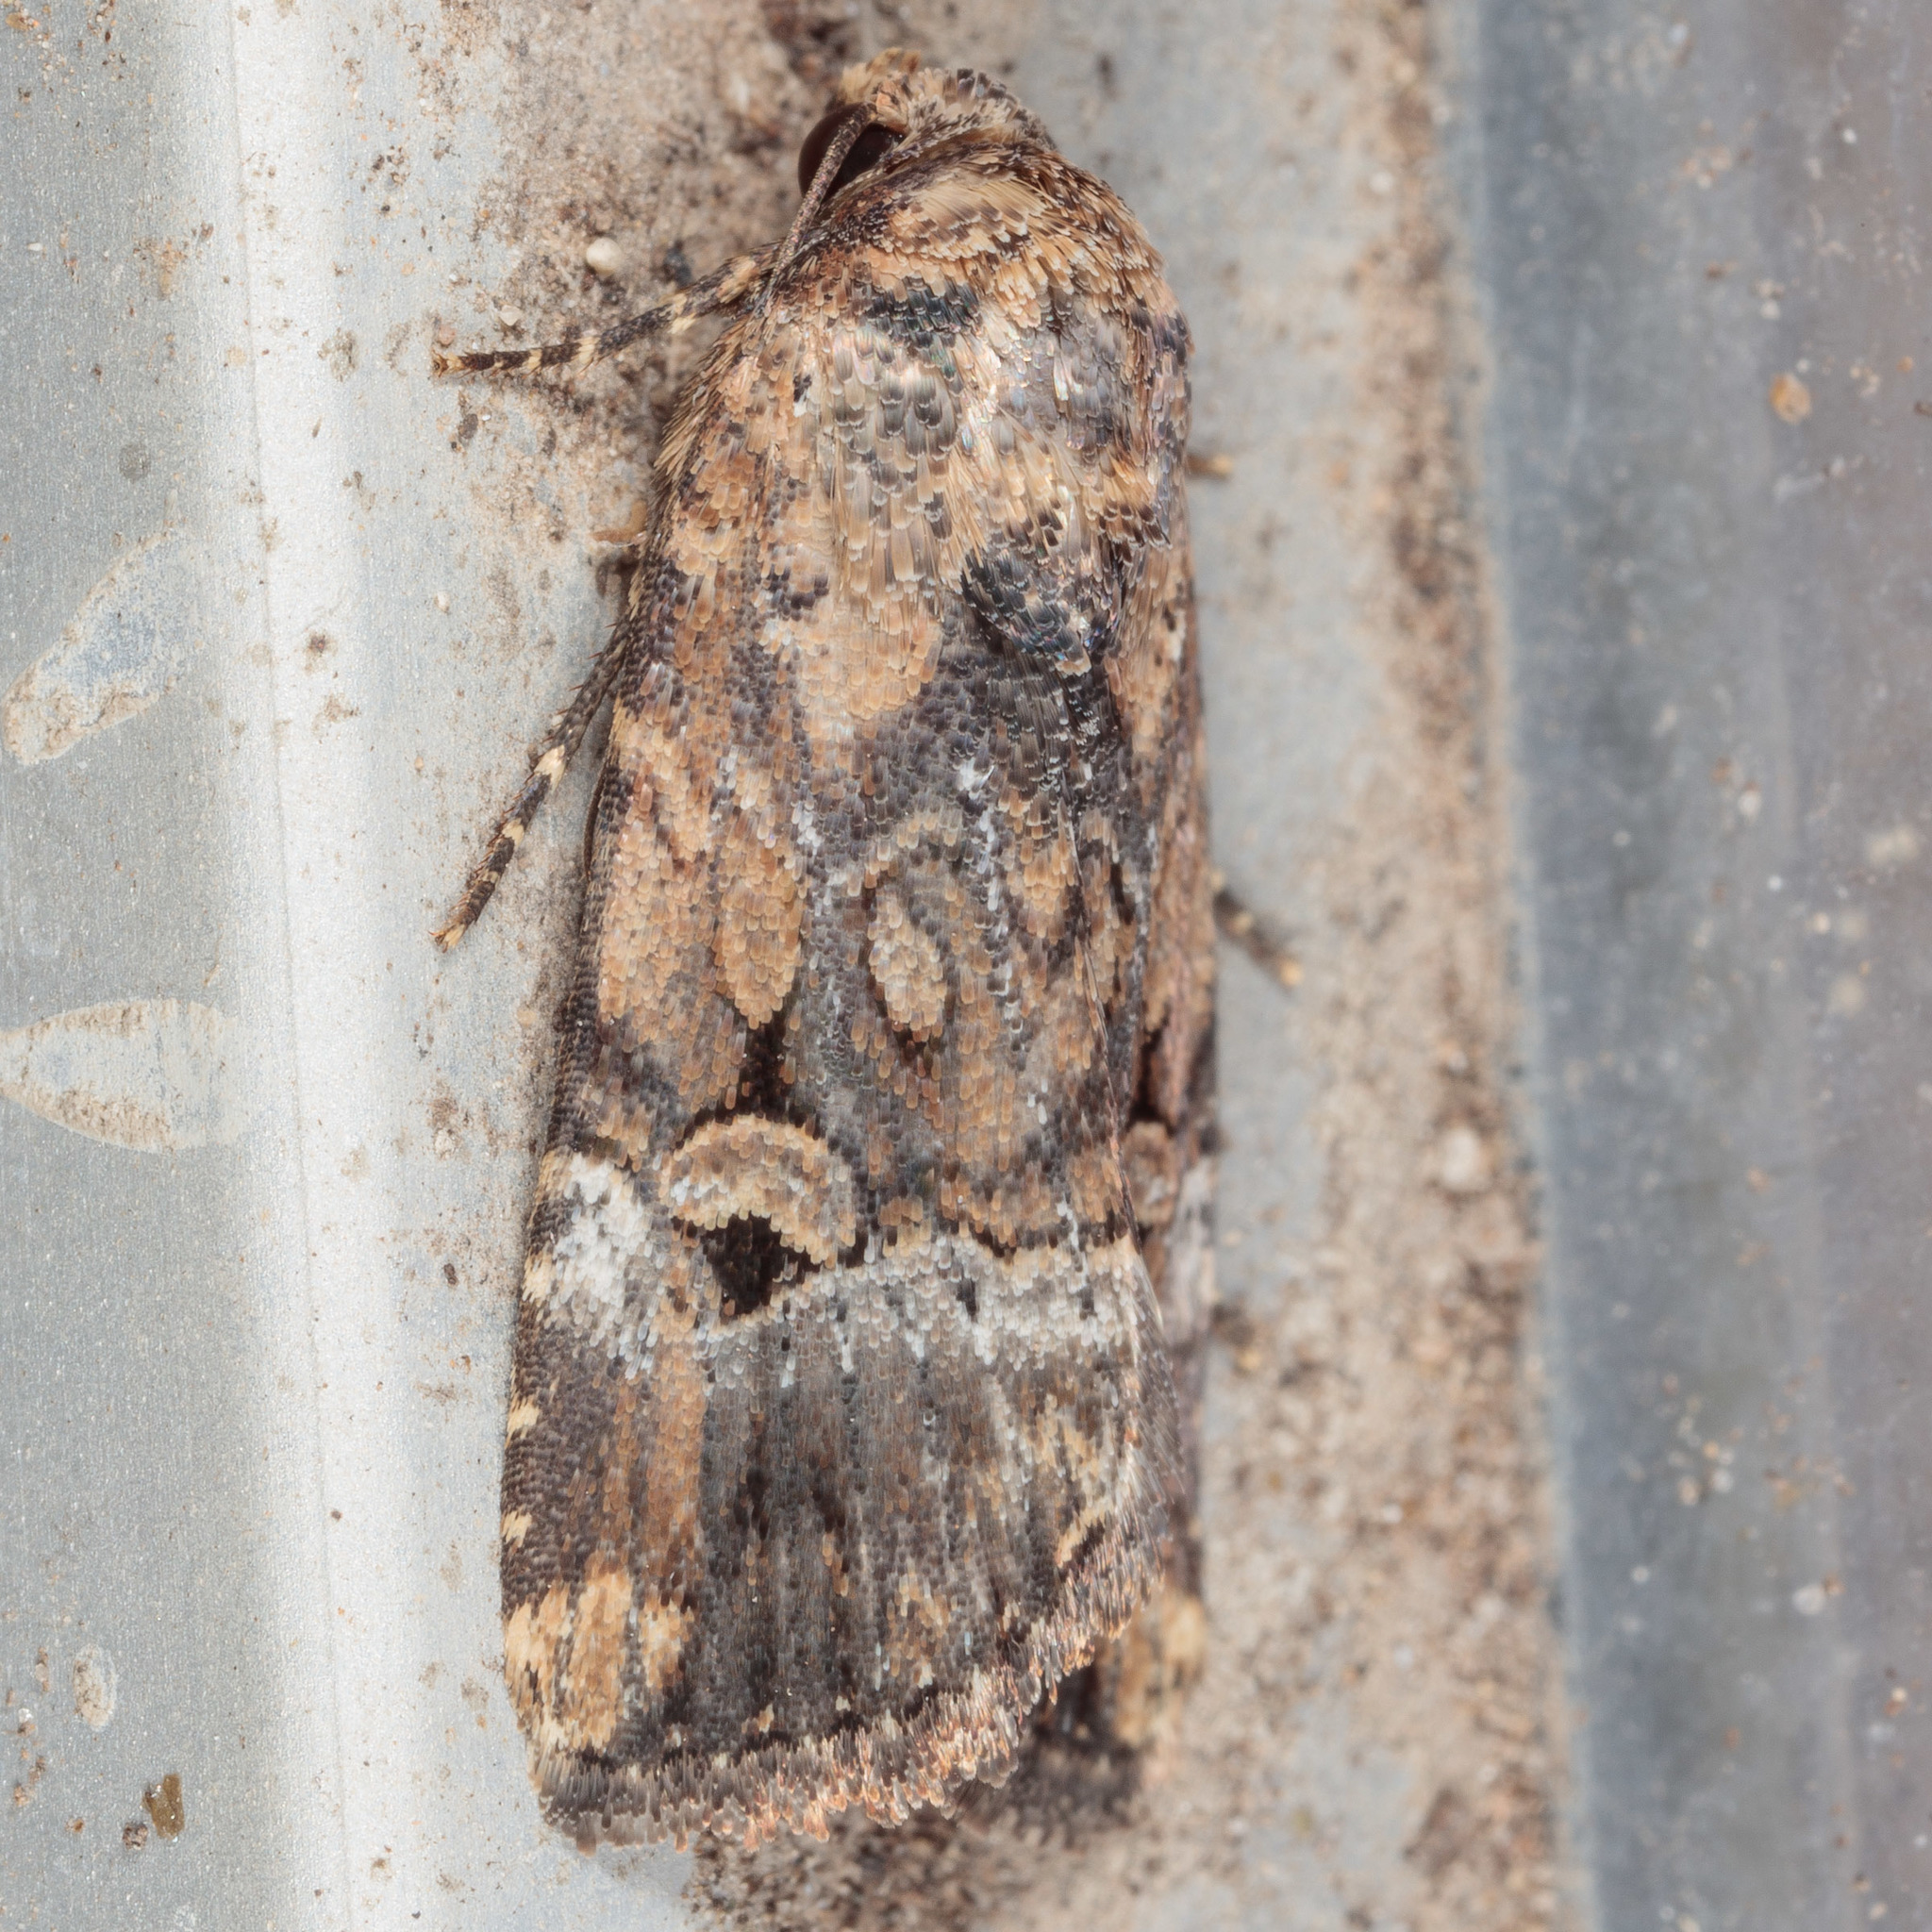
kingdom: Animalia
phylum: Arthropoda
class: Insecta
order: Lepidoptera
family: Noctuidae
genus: Elaphria
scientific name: Elaphria chalcedonia
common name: Chalcedony midget
